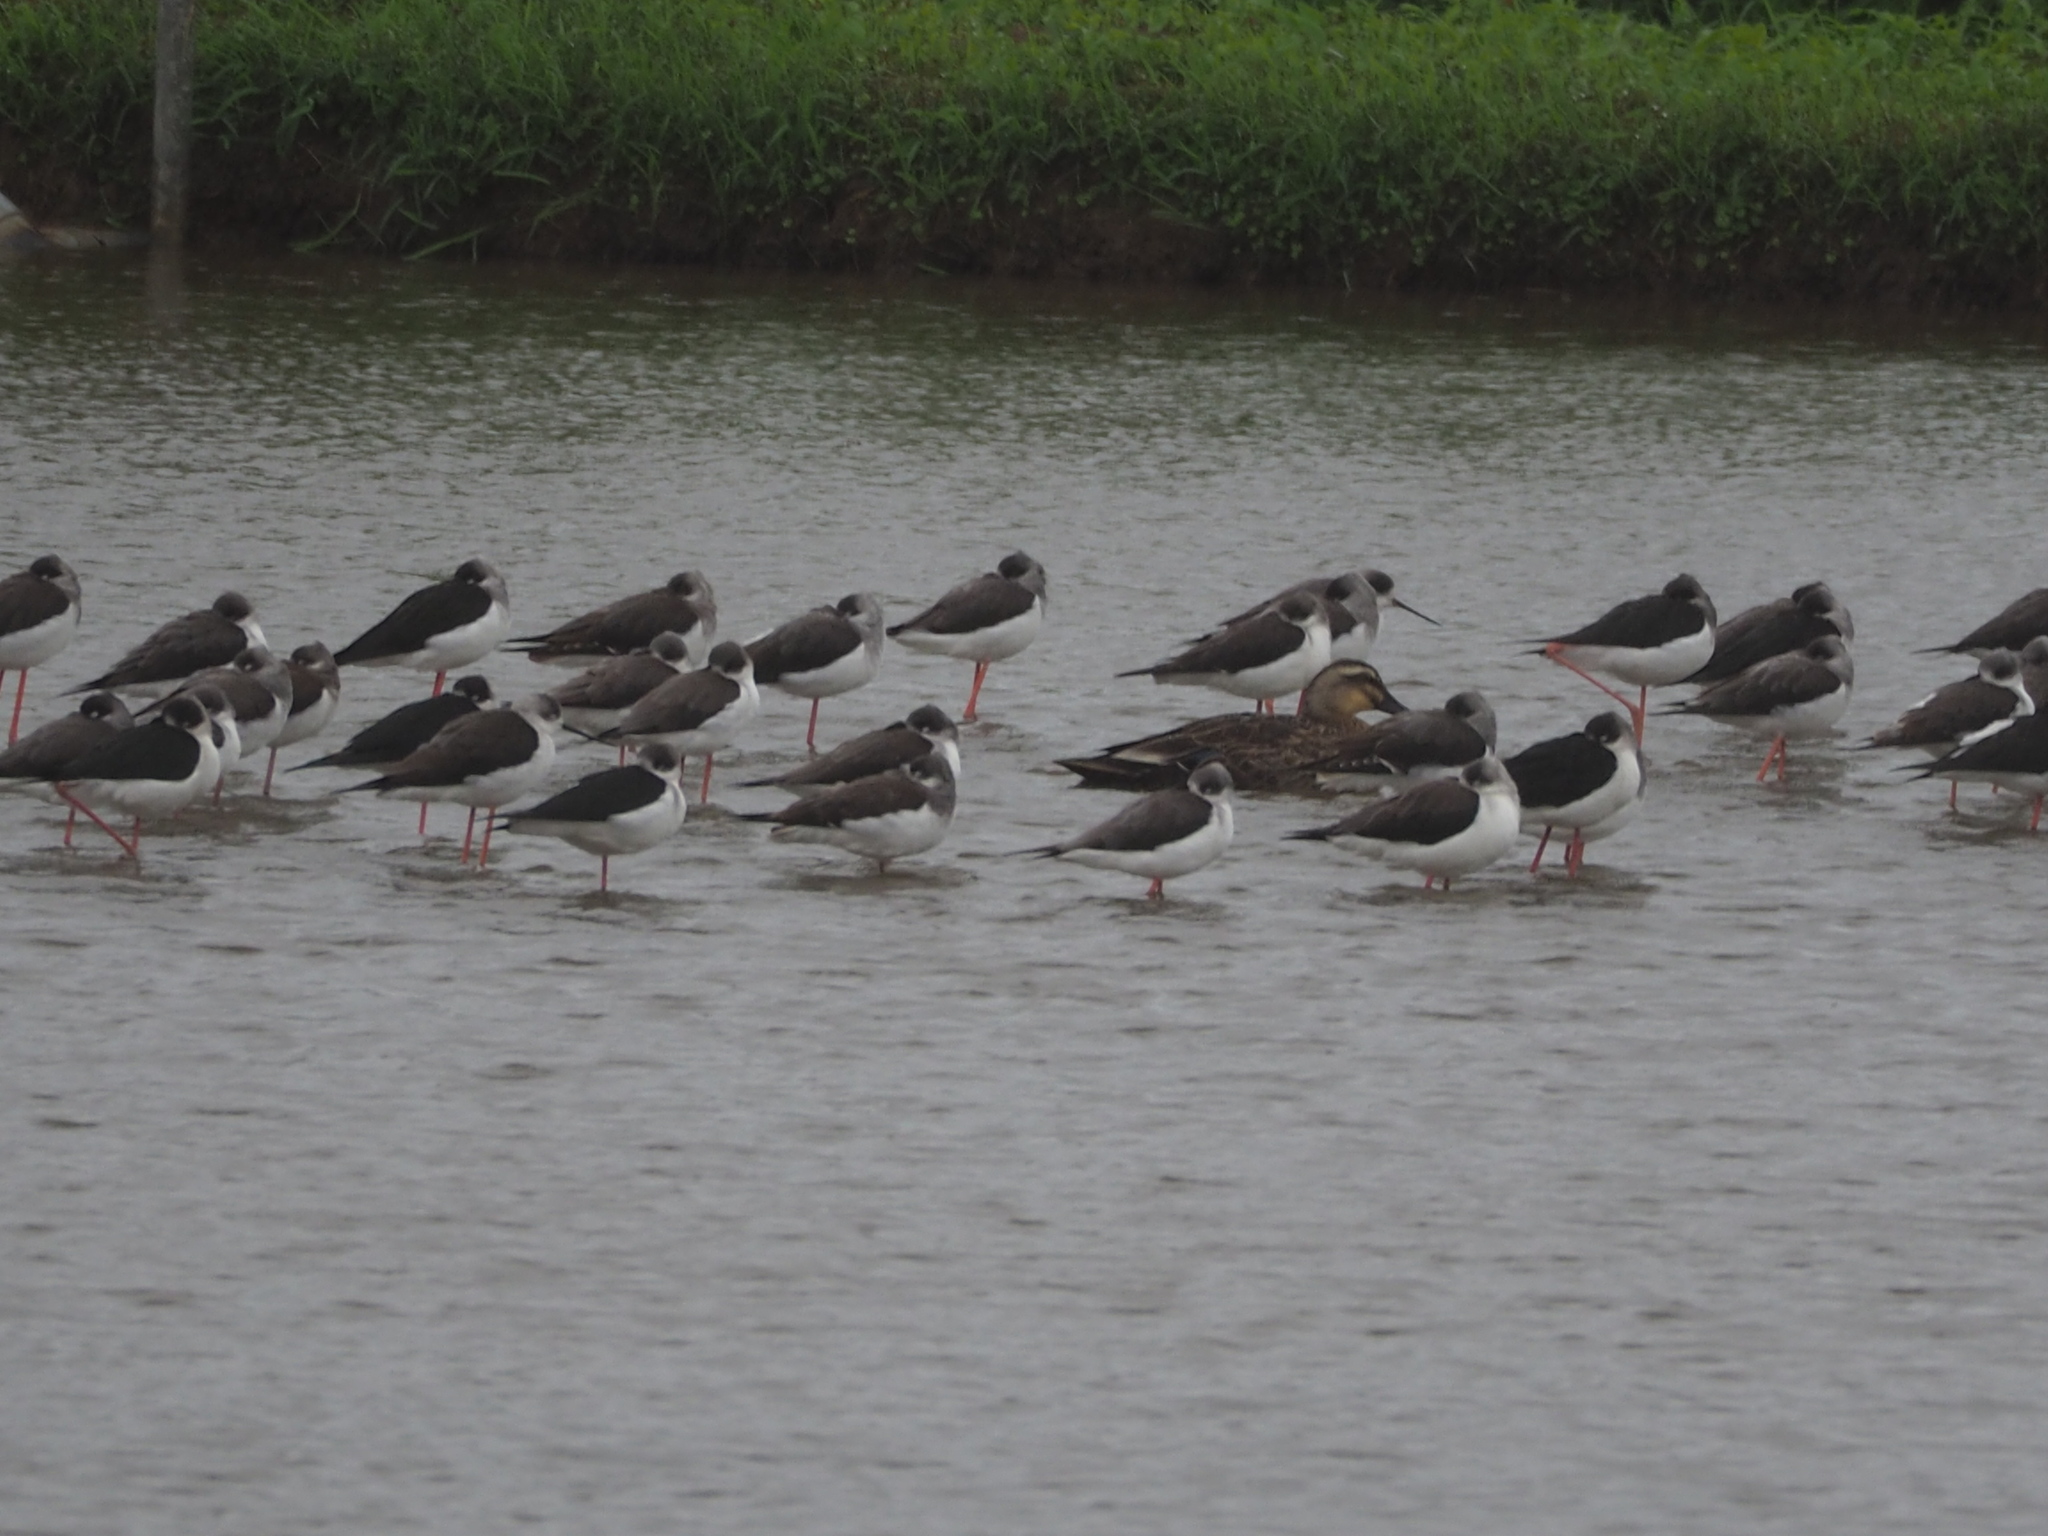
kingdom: Animalia
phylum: Chordata
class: Aves
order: Charadriiformes
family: Recurvirostridae
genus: Himantopus
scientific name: Himantopus himantopus
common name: Black-winged stilt
